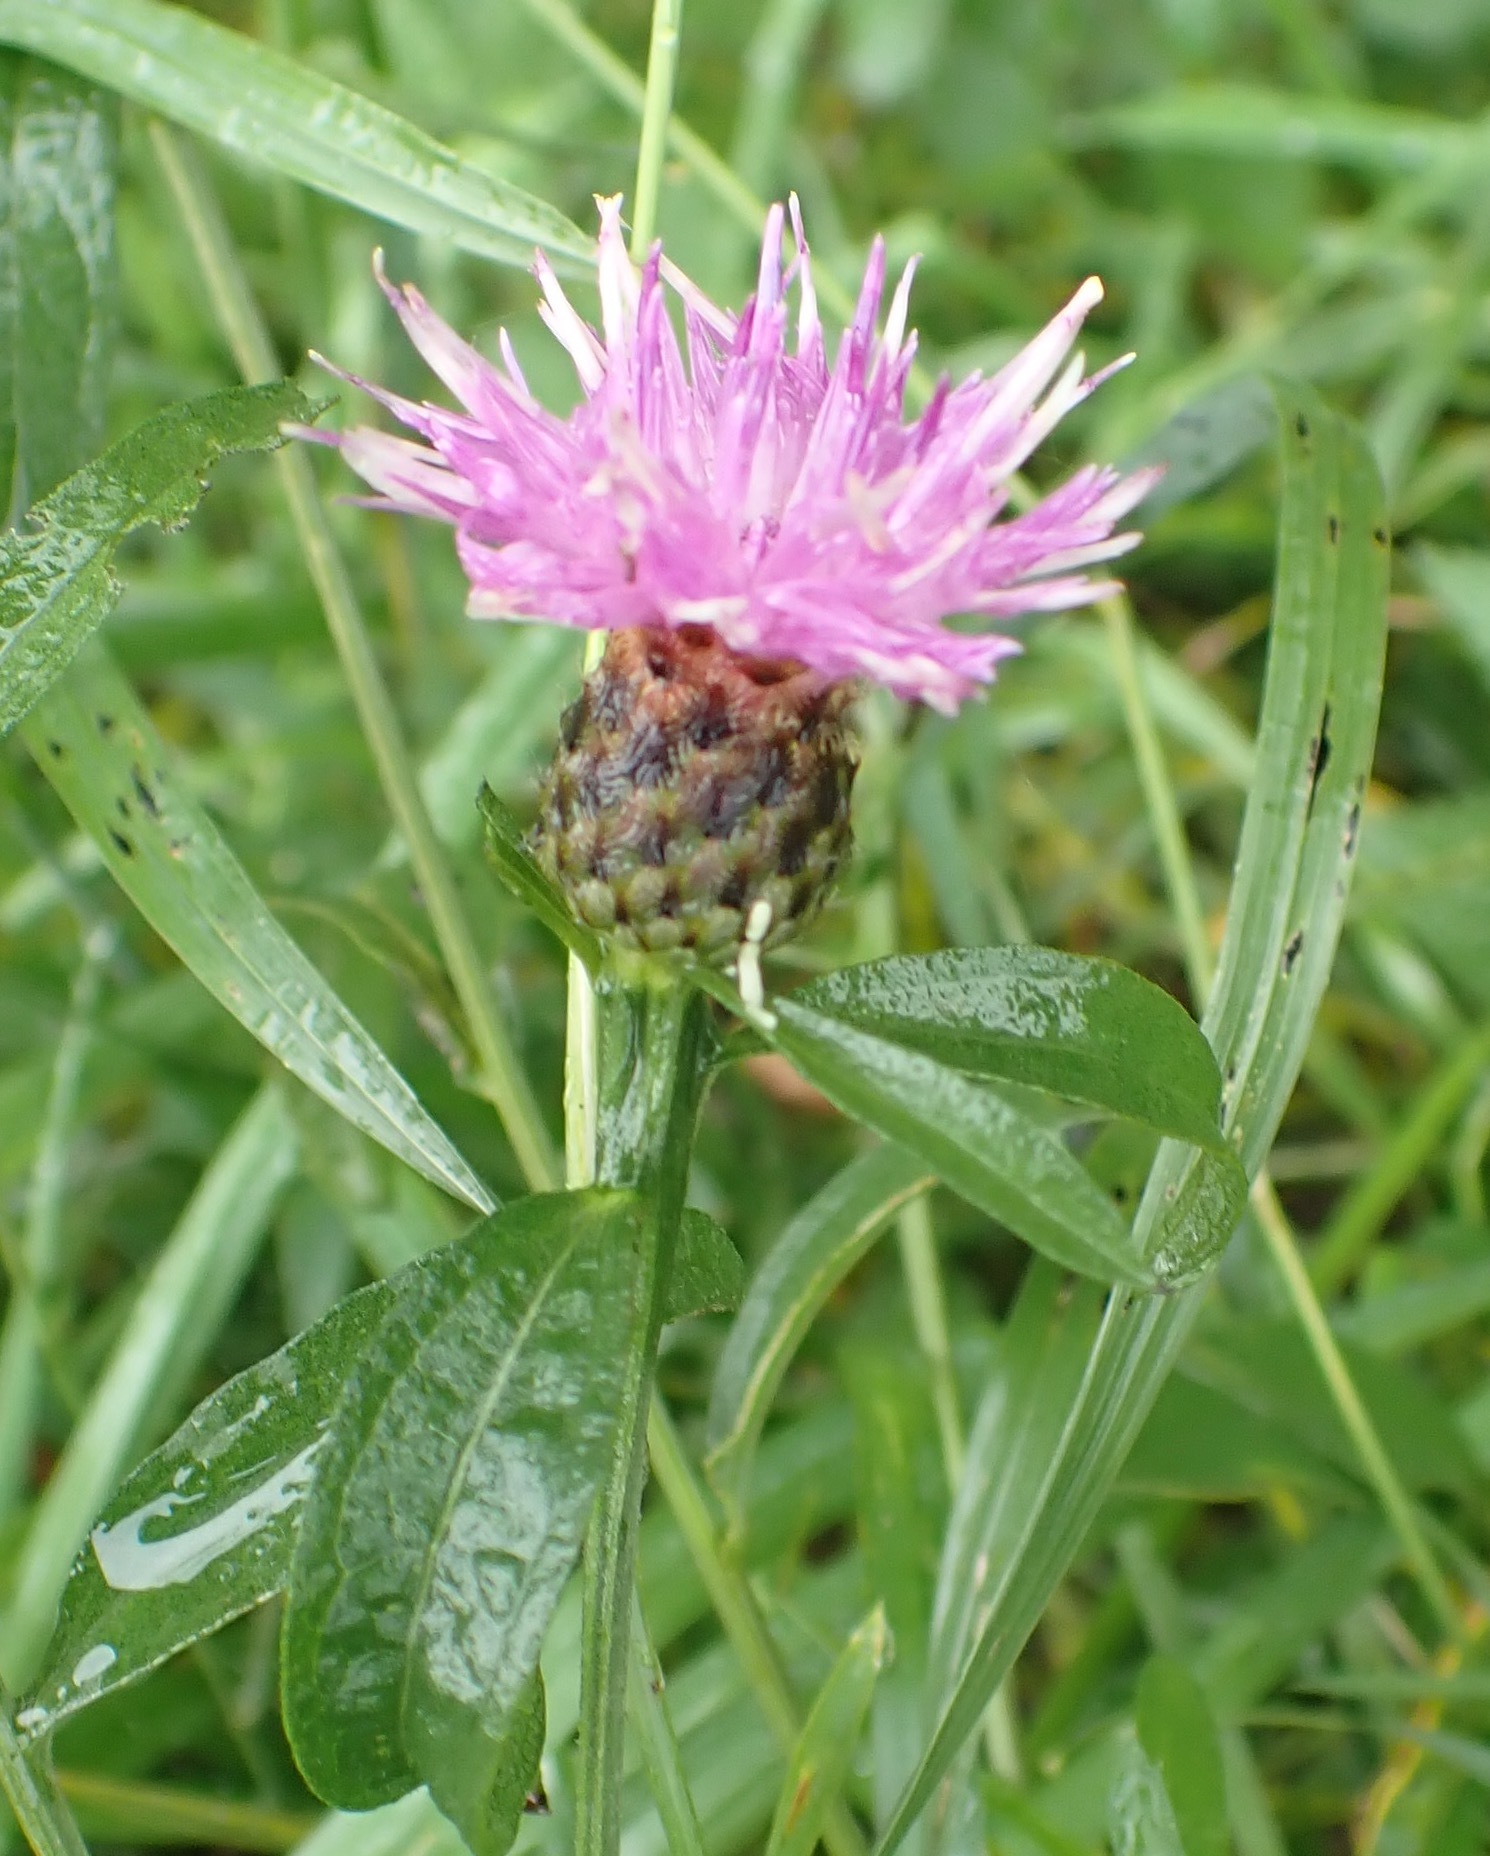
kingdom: Plantae
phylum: Tracheophyta
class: Magnoliopsida
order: Asterales
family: Asteraceae
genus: Centaurea
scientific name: Centaurea nigra
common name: Lesser knapweed
